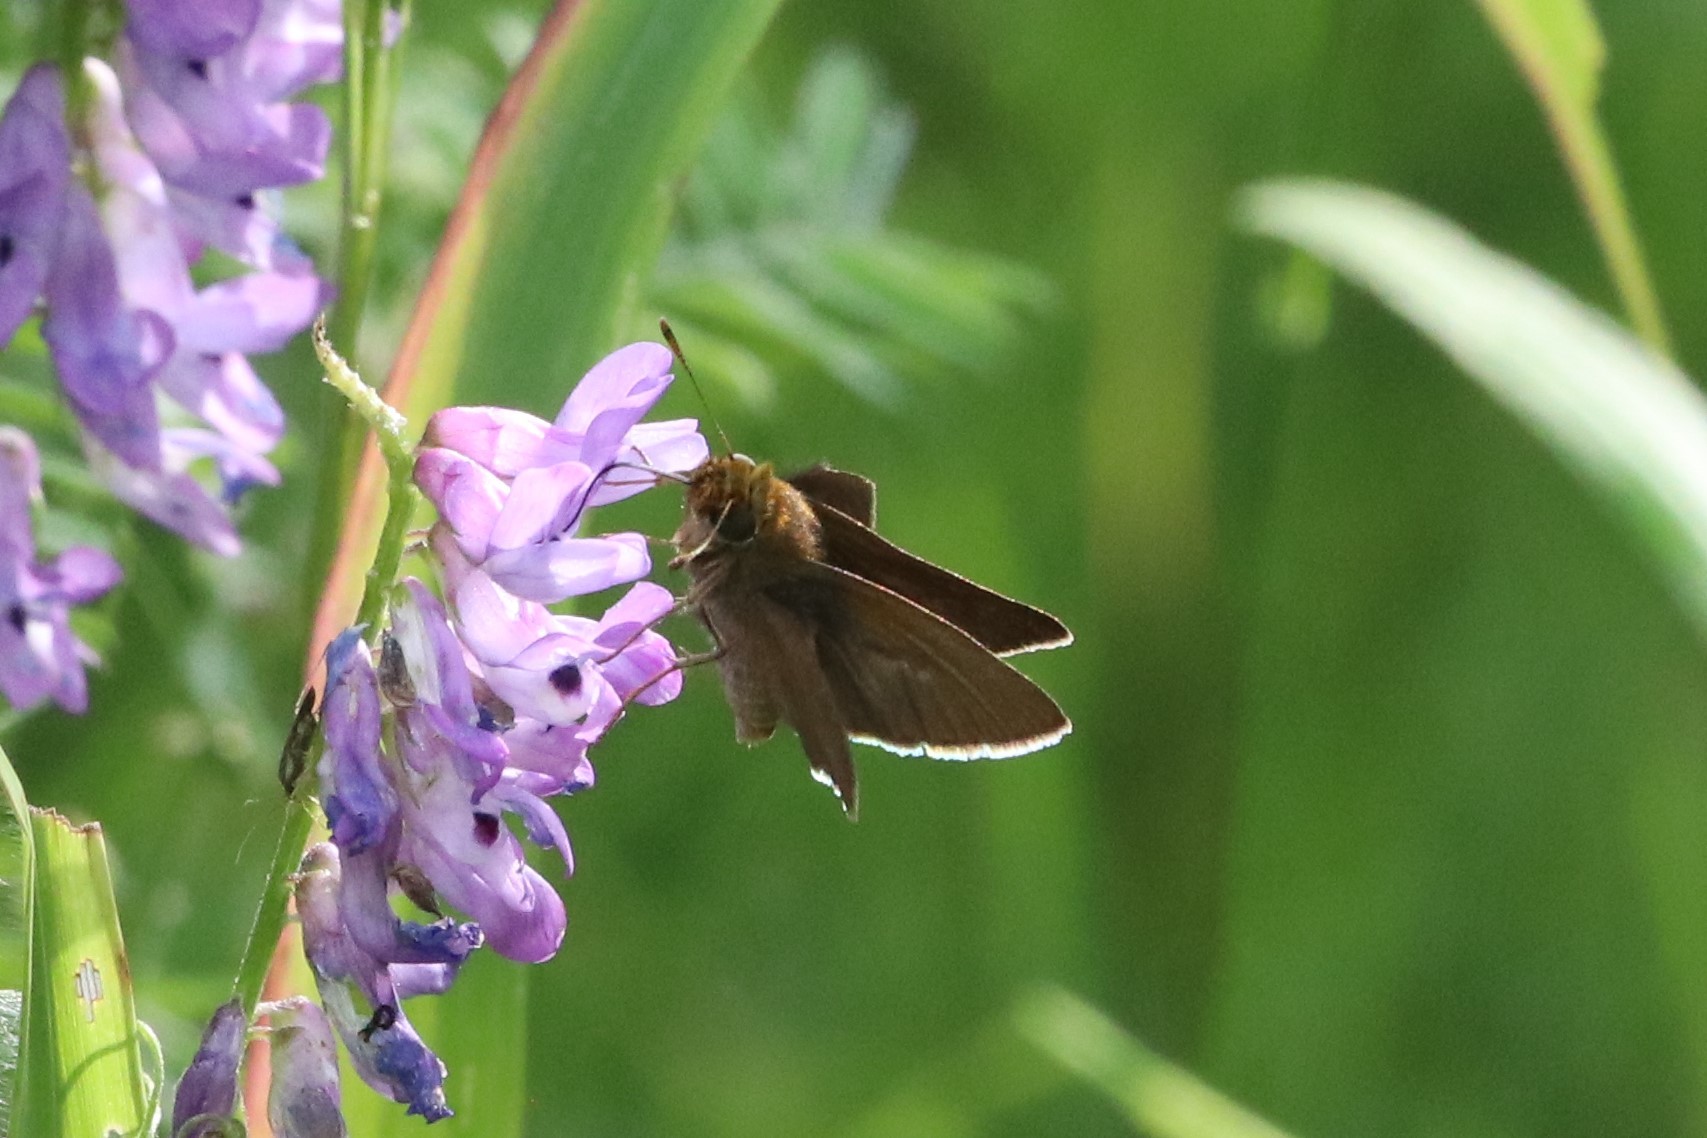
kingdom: Animalia
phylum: Arthropoda
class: Insecta
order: Lepidoptera
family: Hesperiidae
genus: Euphyes
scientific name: Euphyes vestris
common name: Dun skipper
